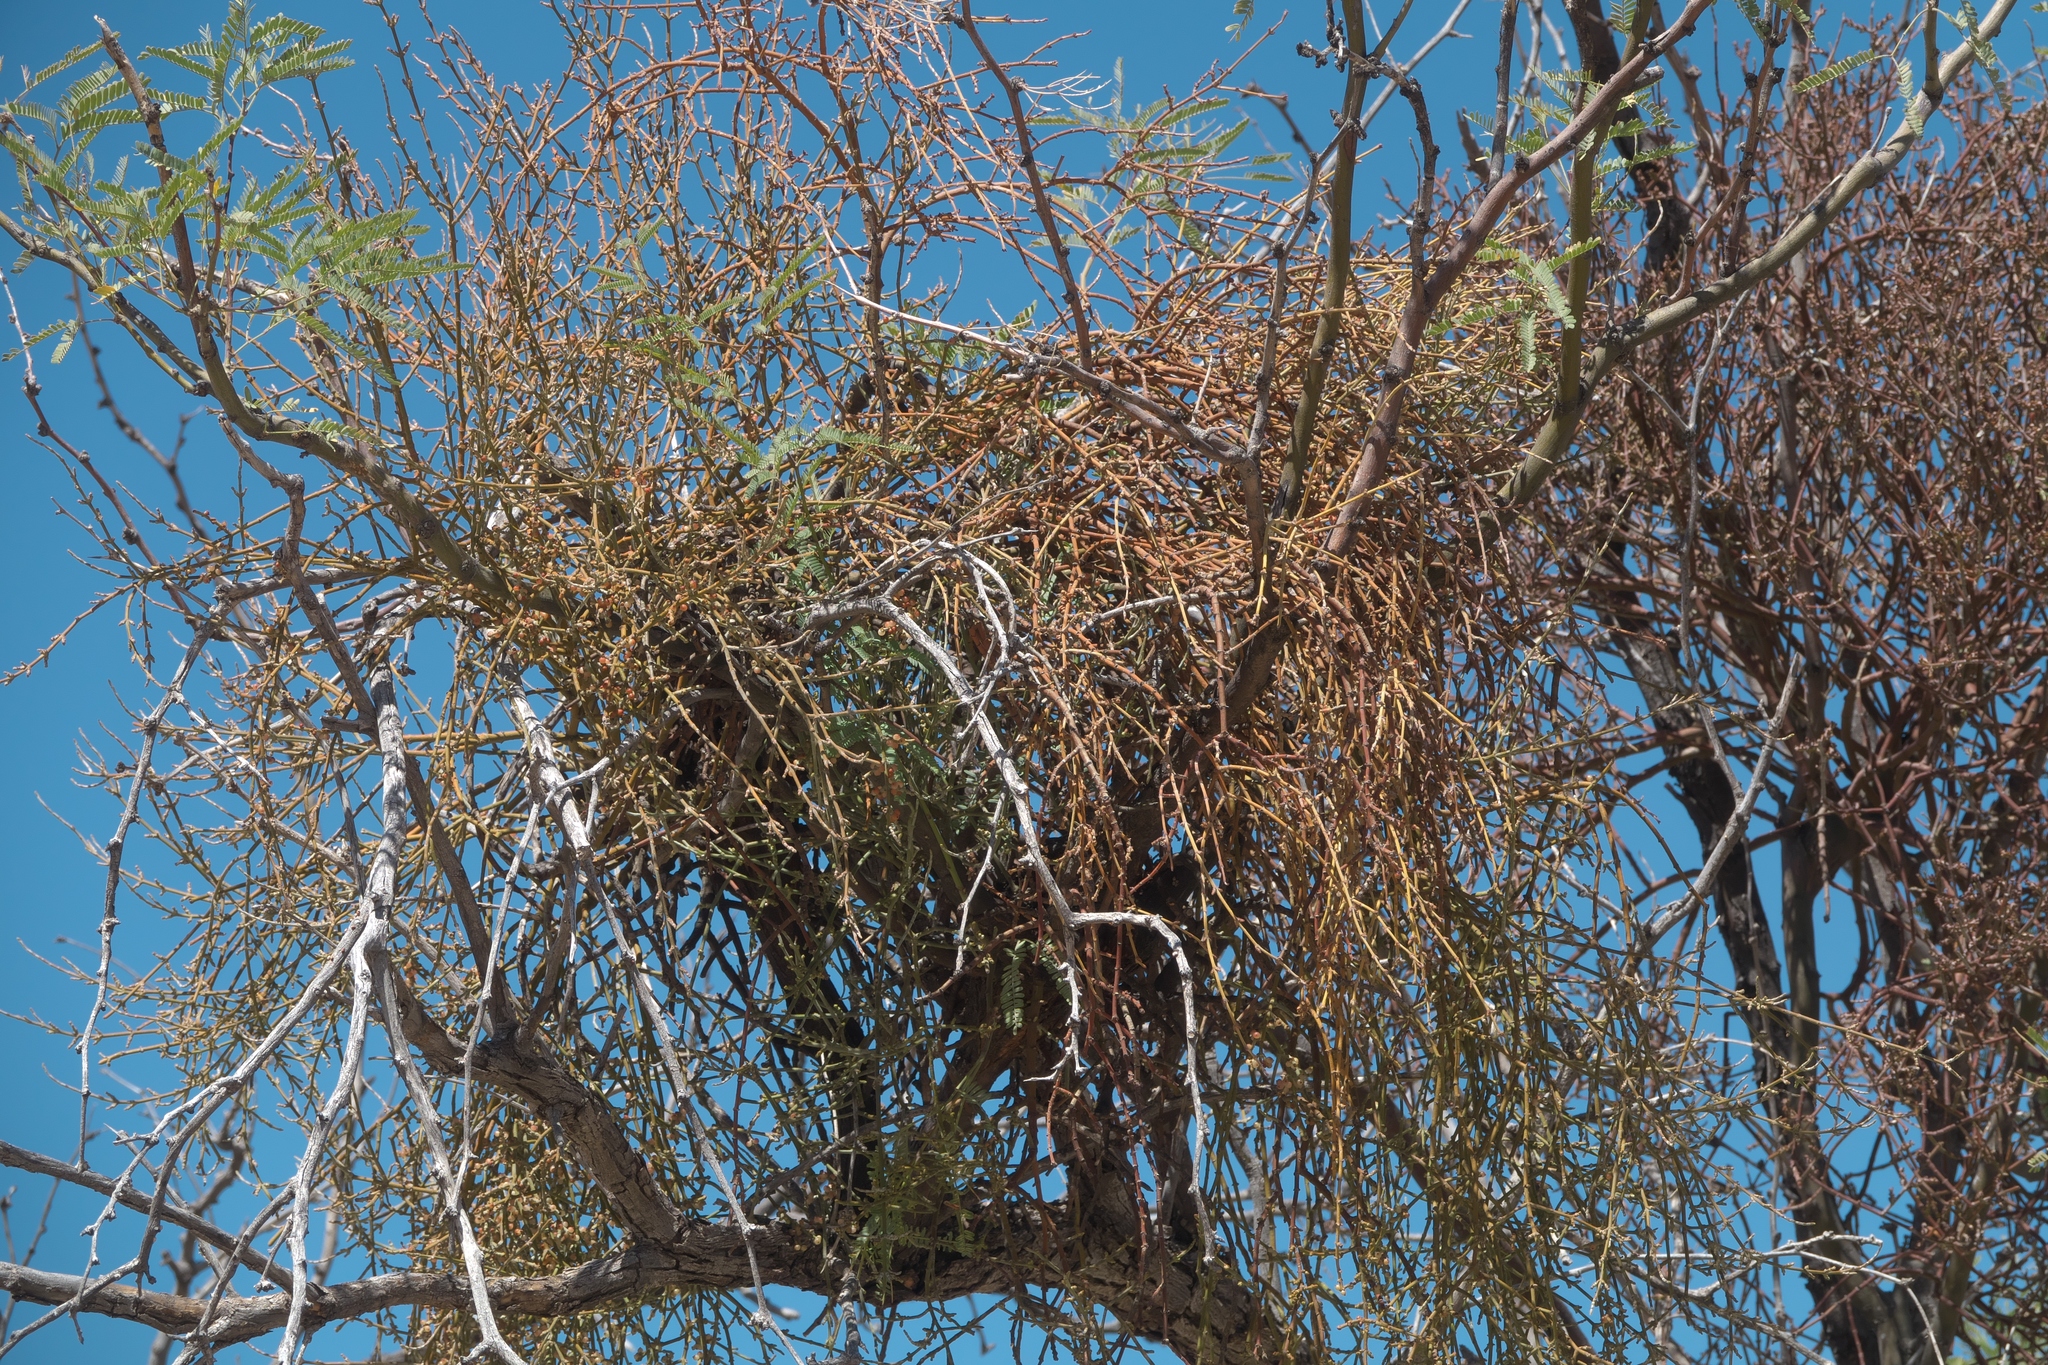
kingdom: Plantae
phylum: Tracheophyta
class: Magnoliopsida
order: Santalales
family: Viscaceae
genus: Phoradendron
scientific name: Phoradendron californicum
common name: Acacia mistletoe
